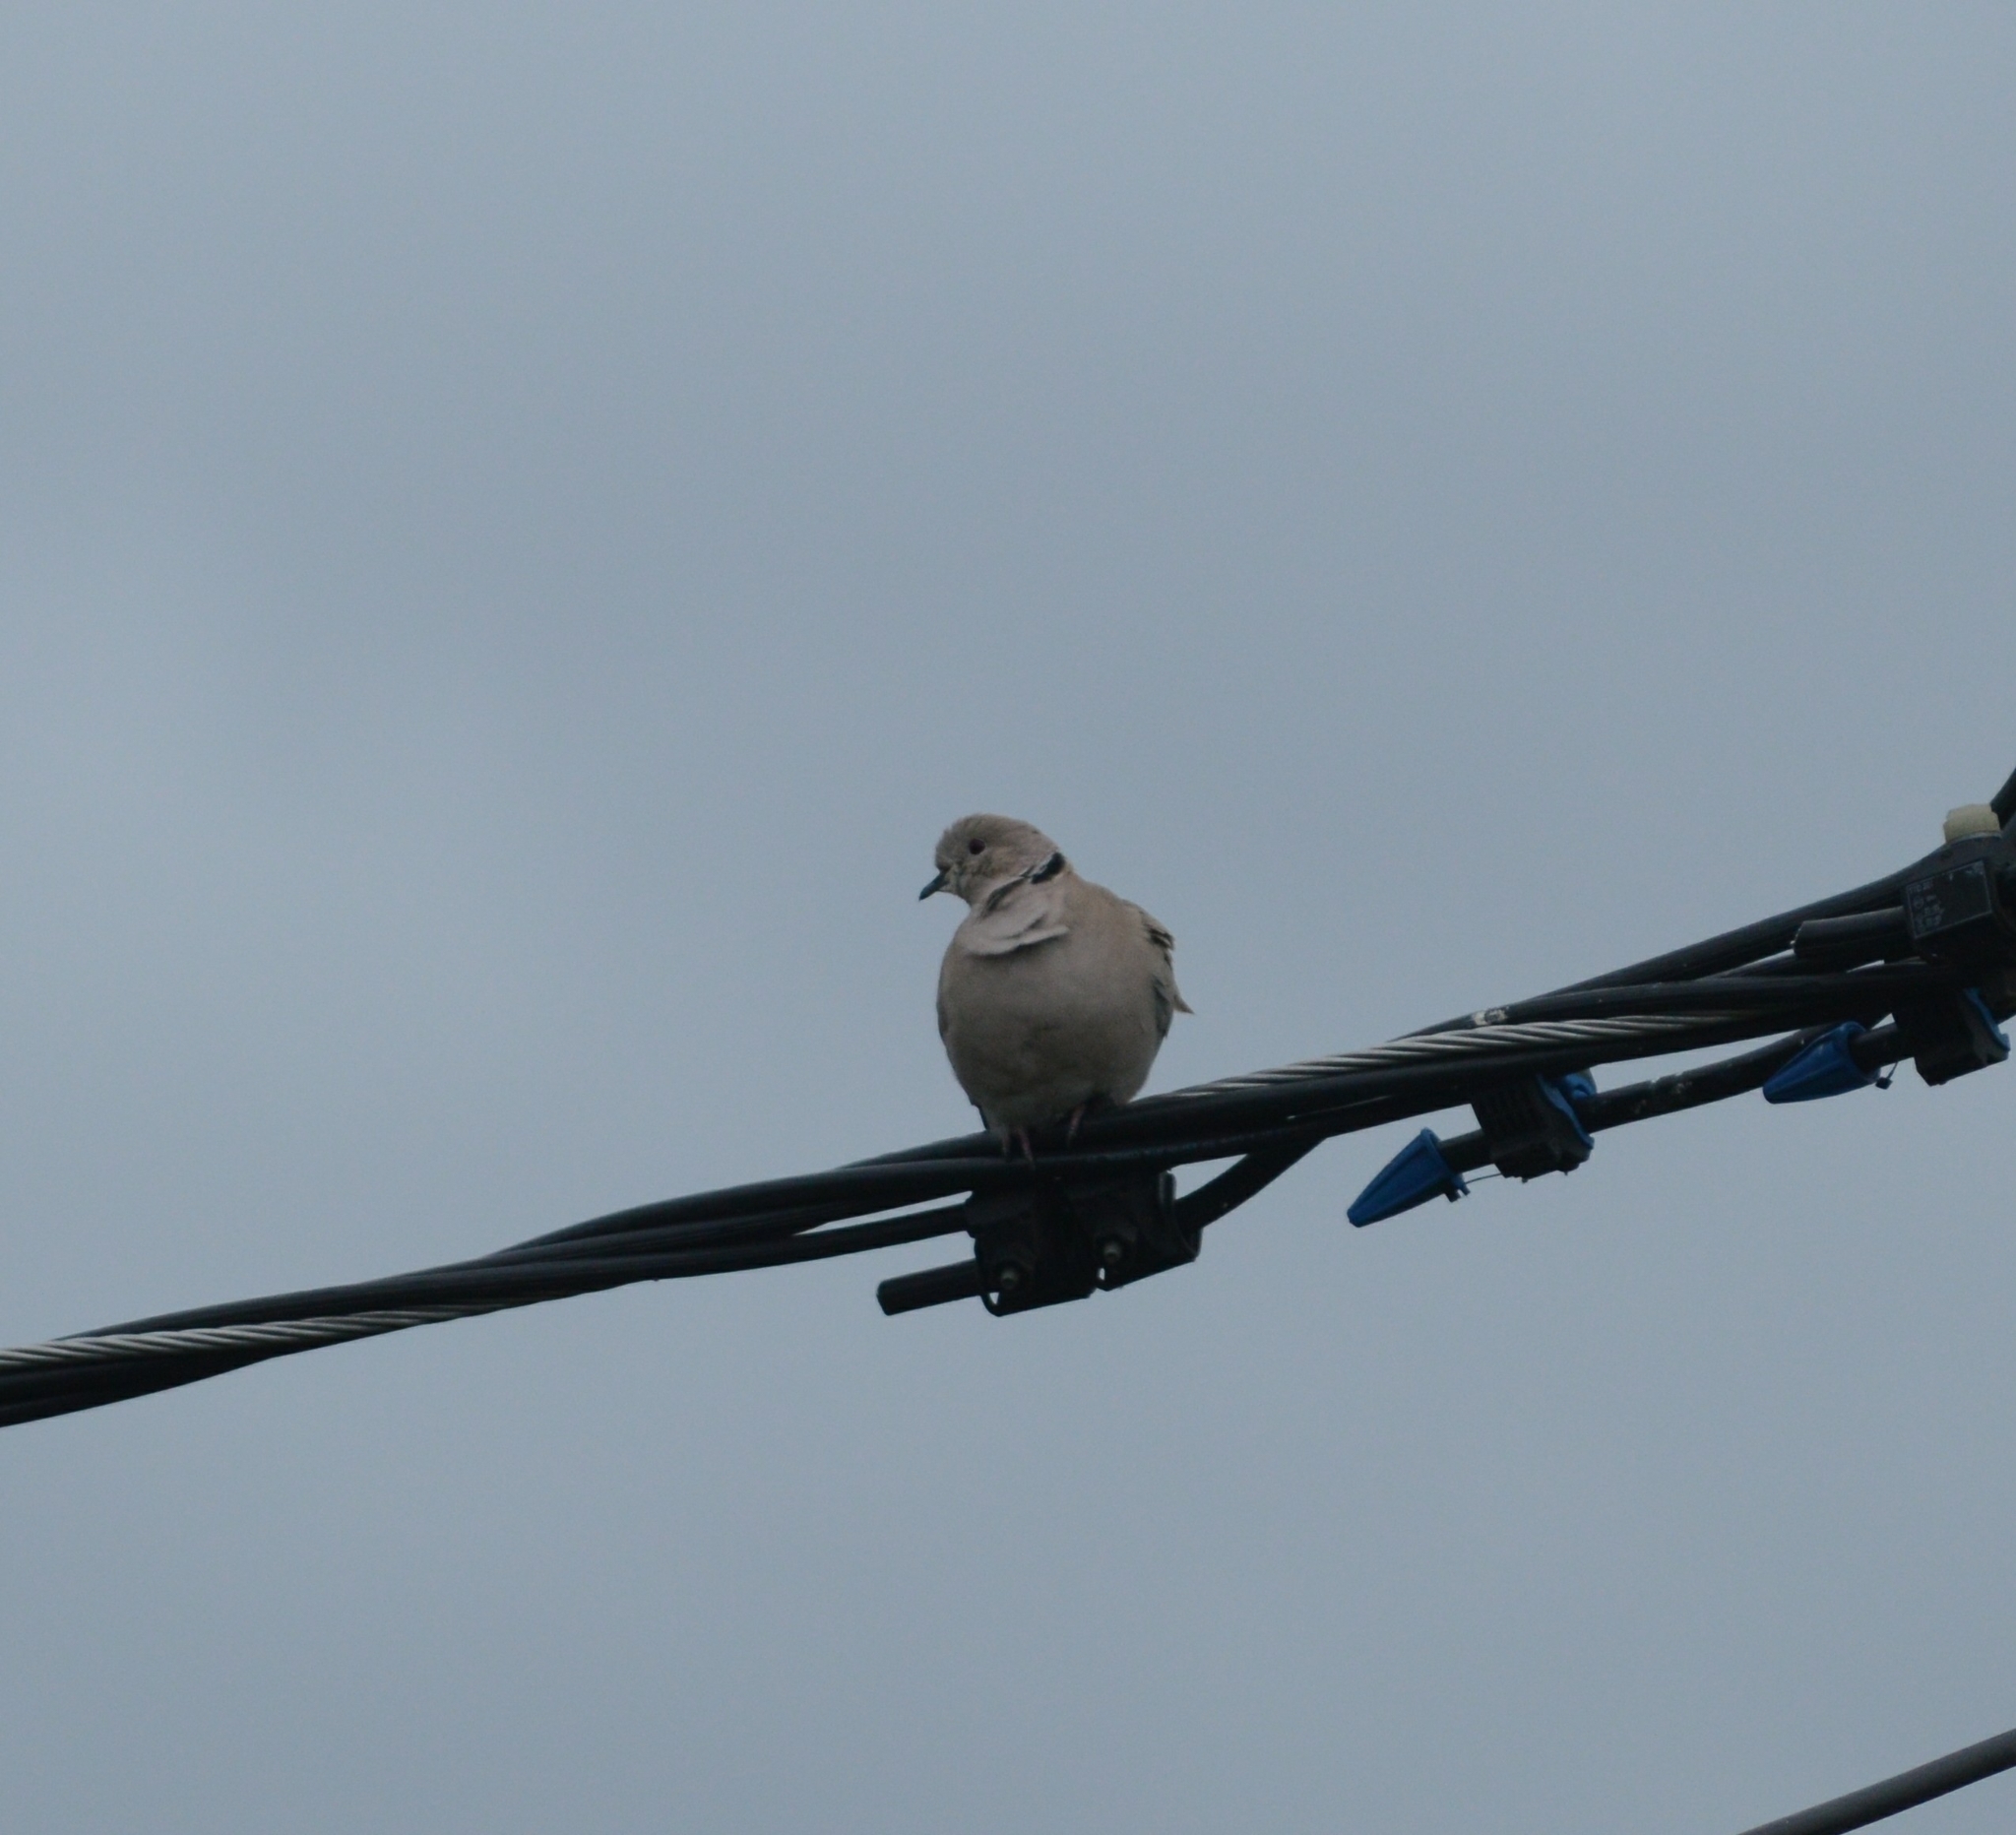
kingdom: Animalia
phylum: Chordata
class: Aves
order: Columbiformes
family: Columbidae
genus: Streptopelia
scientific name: Streptopelia decaocto
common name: Eurasian collared dove
